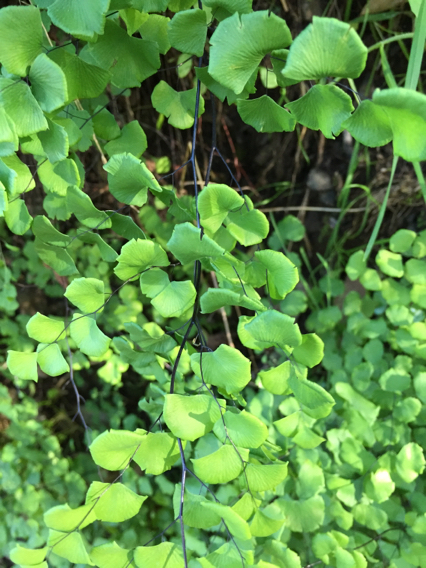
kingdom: Plantae
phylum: Tracheophyta
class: Polypodiopsida
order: Polypodiales
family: Pteridaceae
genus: Adiantum
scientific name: Adiantum jordanii
